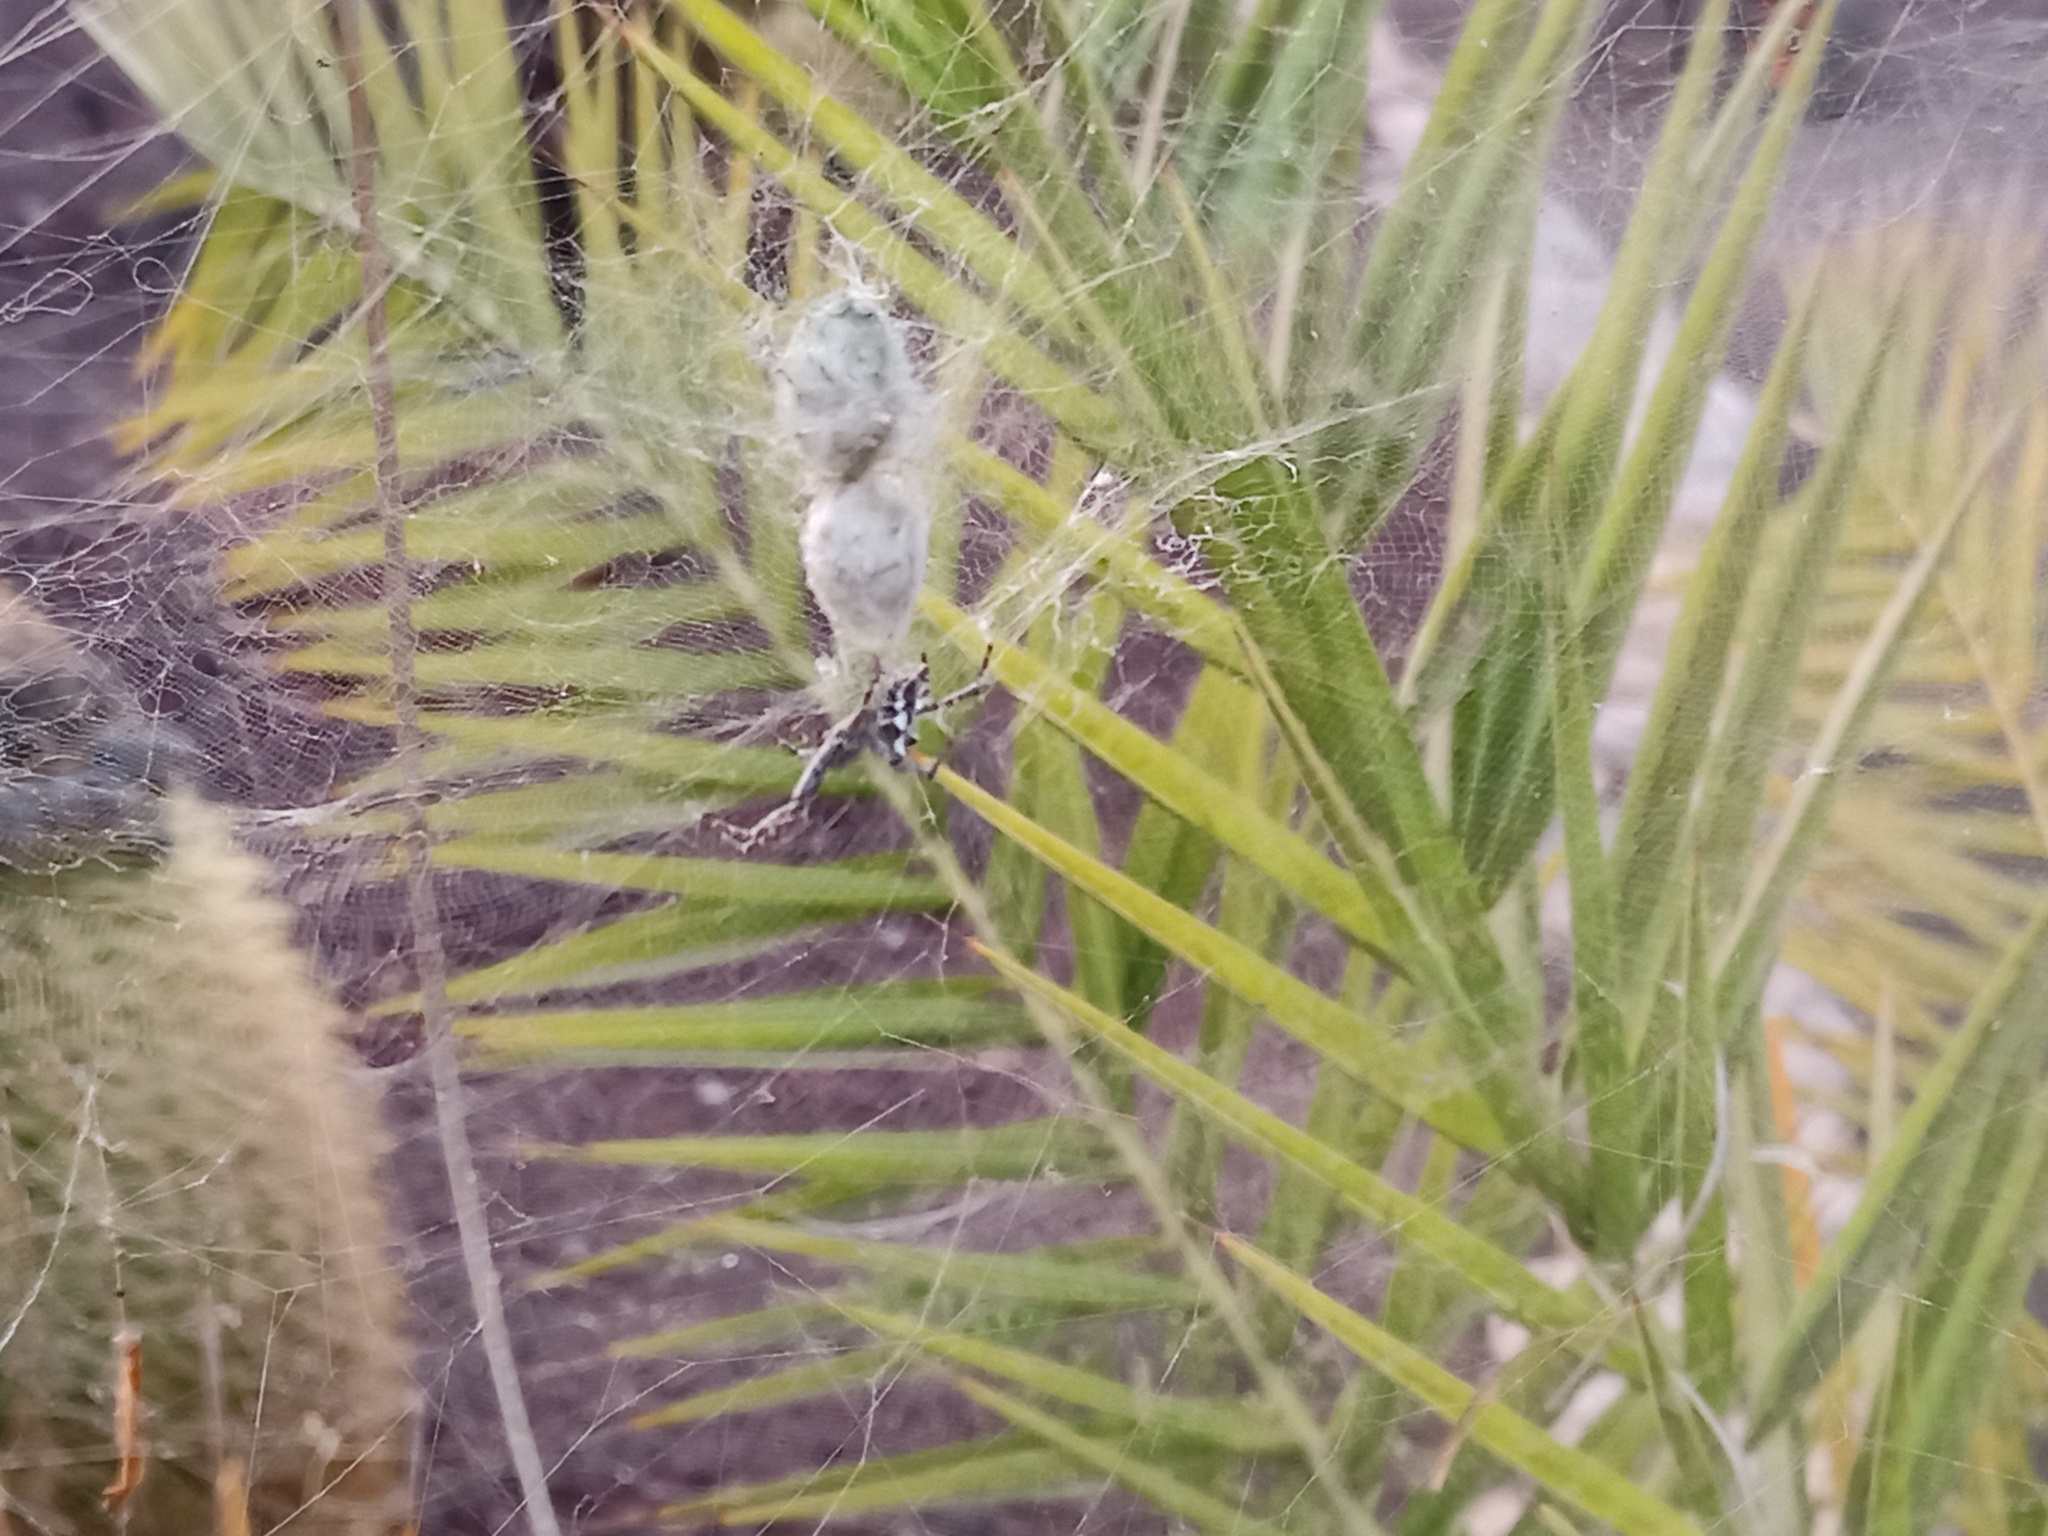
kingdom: Animalia
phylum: Arthropoda
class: Arachnida
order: Araneae
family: Araneidae
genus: Cyrtophora
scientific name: Cyrtophora citricola
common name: Orb weavers
